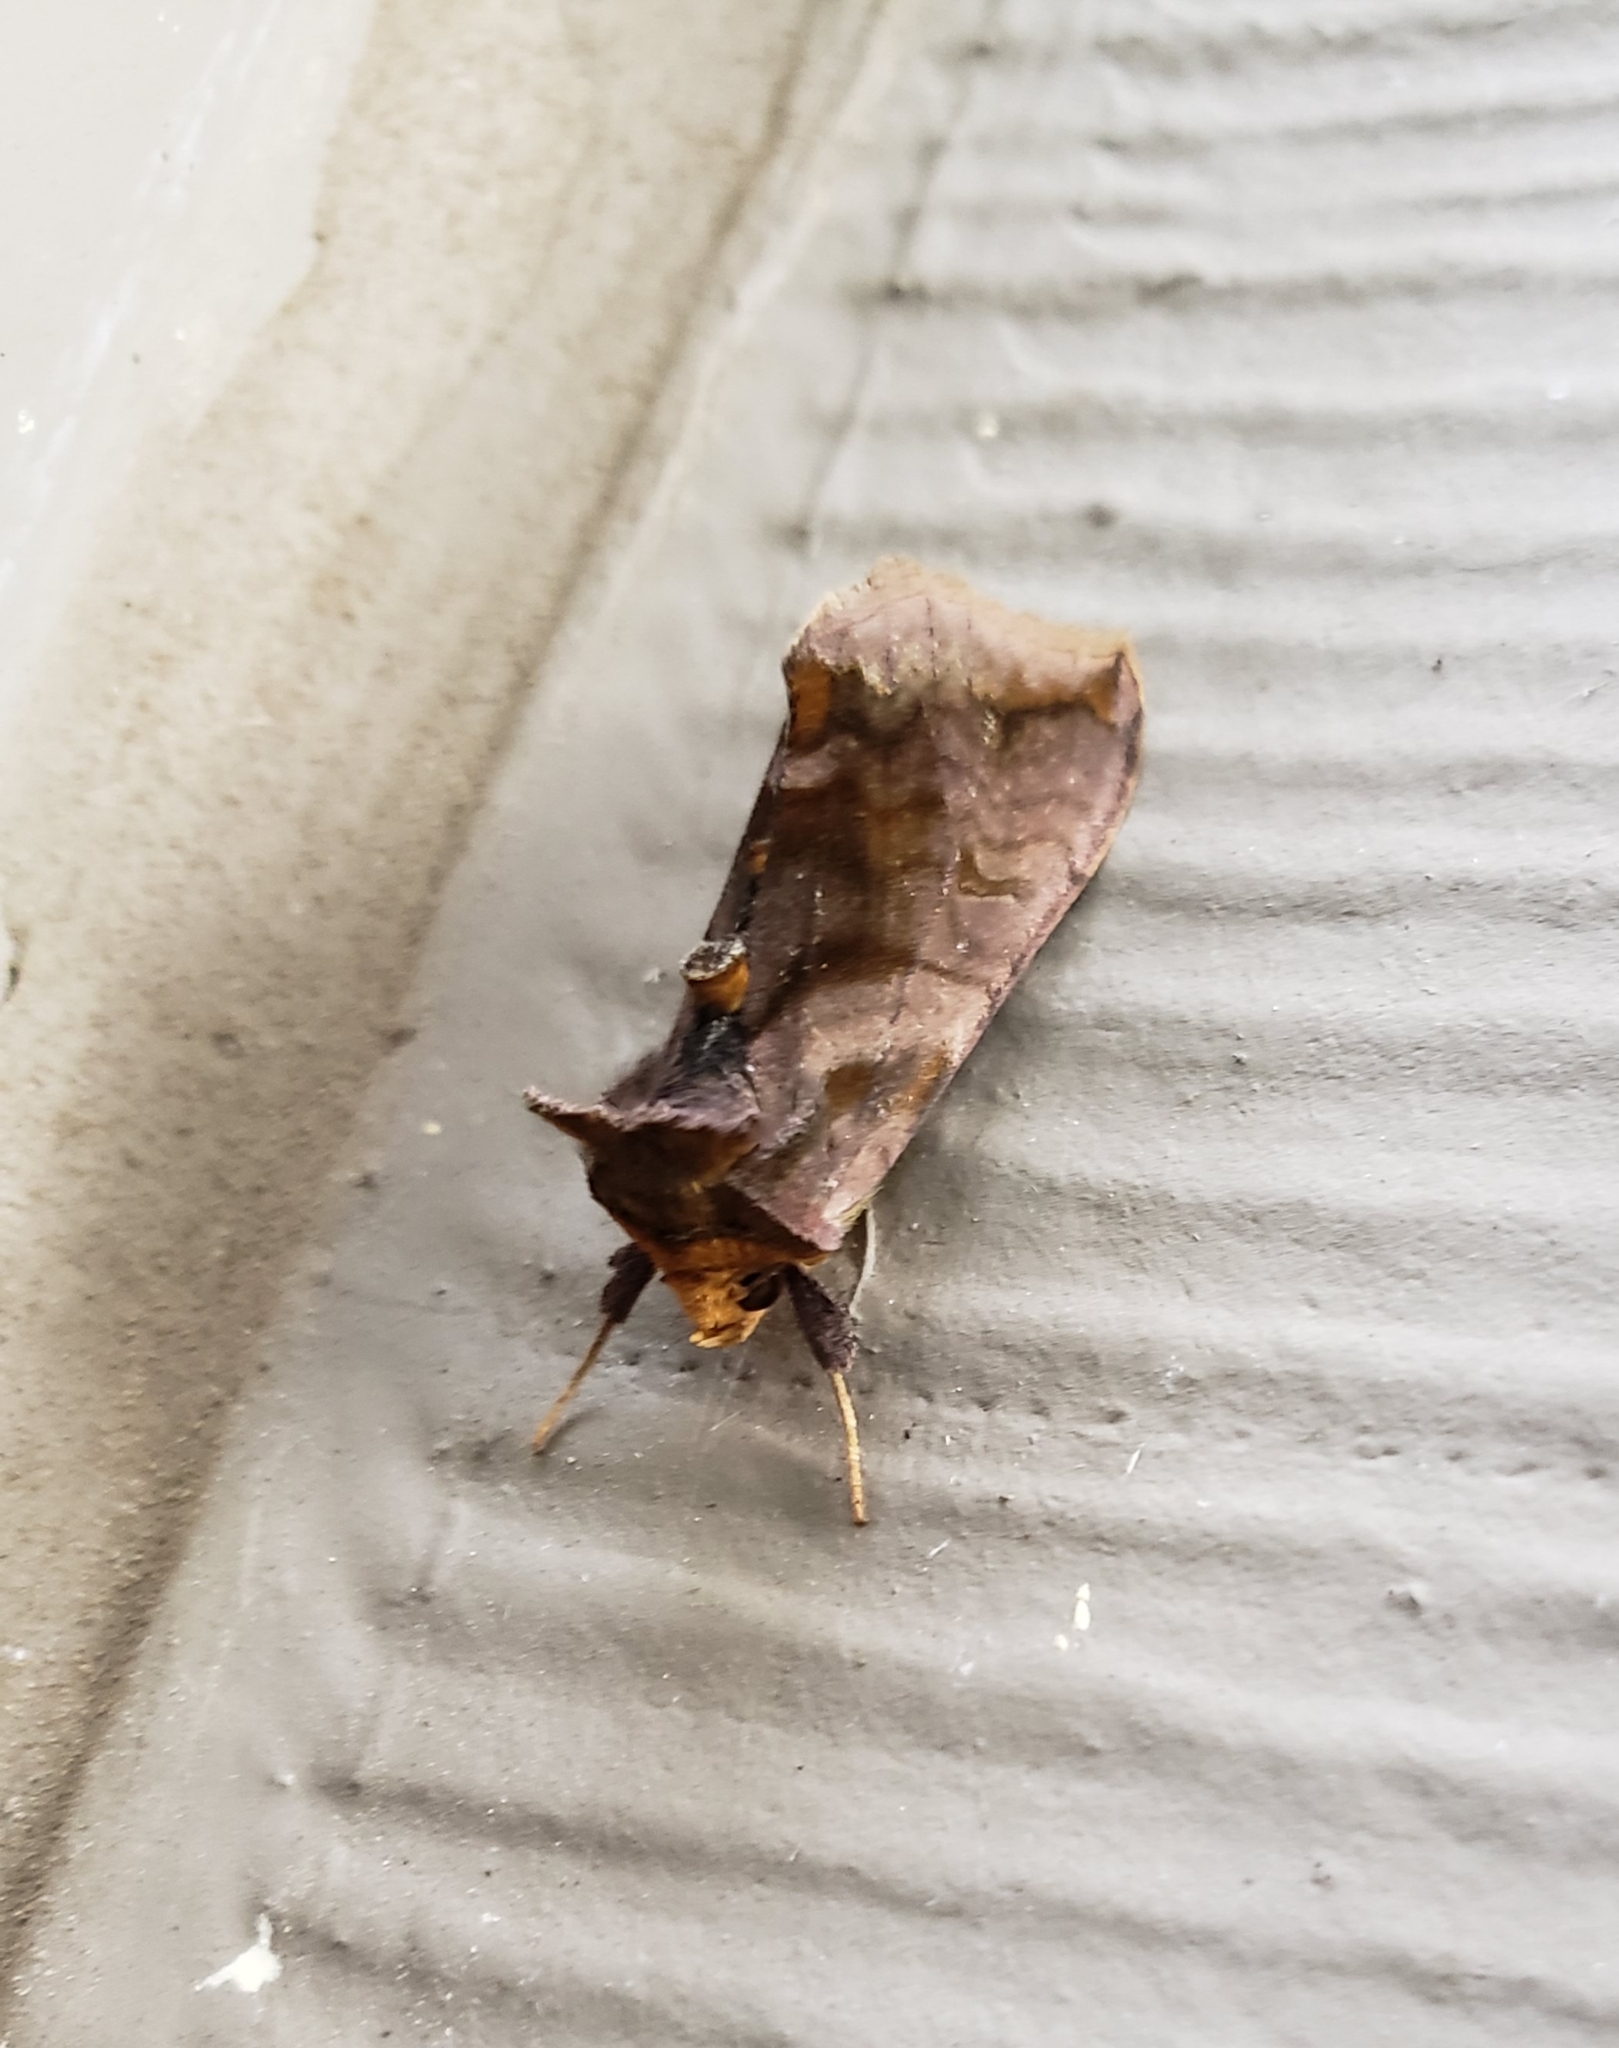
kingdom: Animalia
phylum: Arthropoda
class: Insecta
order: Lepidoptera
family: Noctuidae
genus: Allagrapha
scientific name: Allagrapha aerea
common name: Unspotted looper moth
